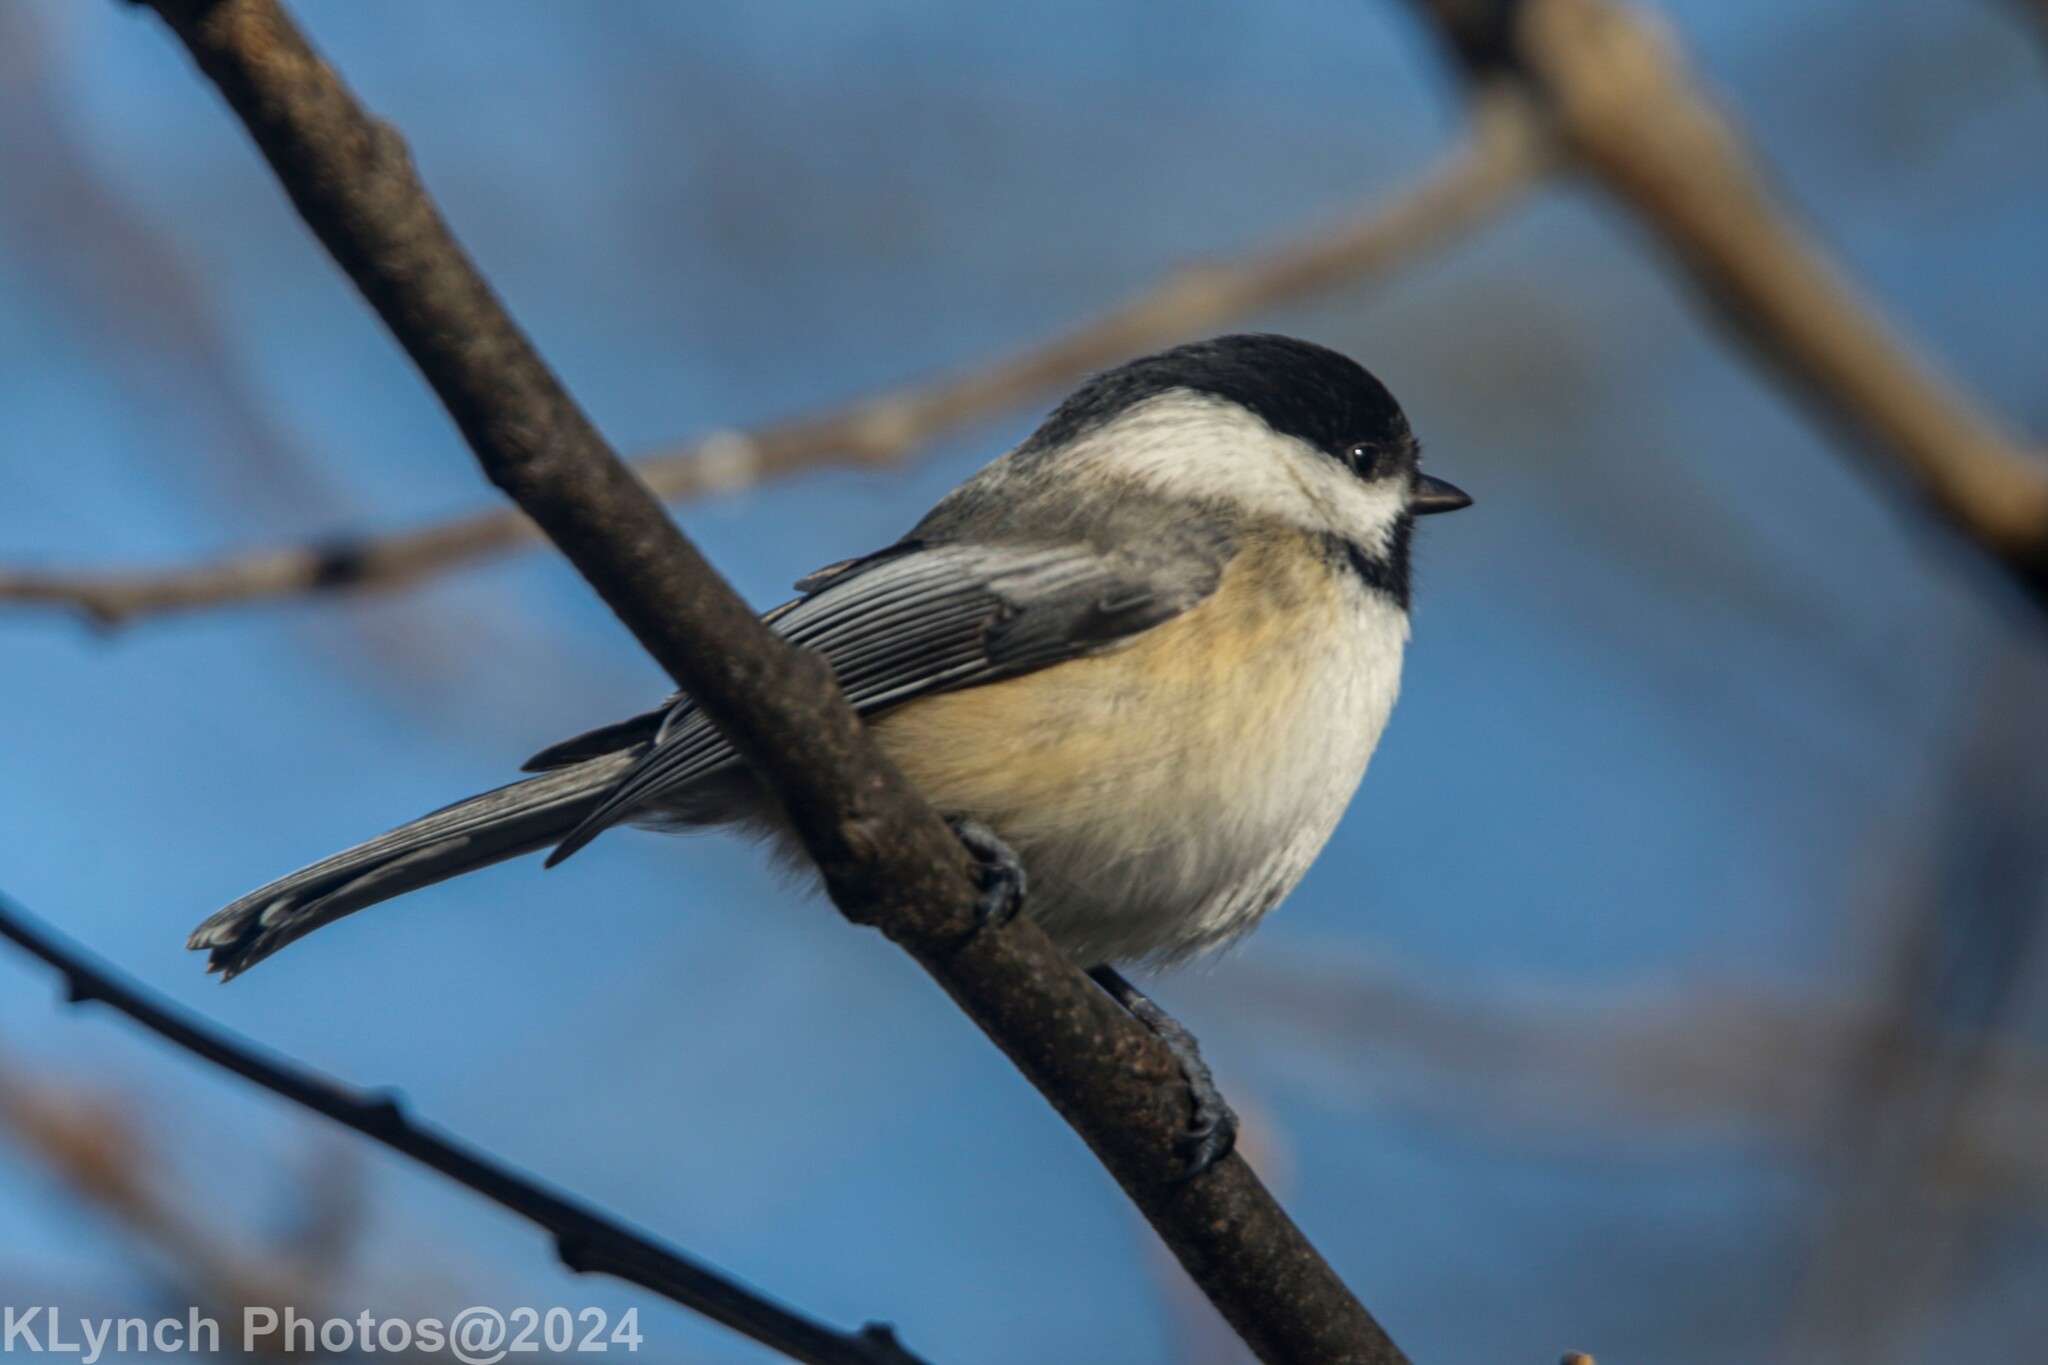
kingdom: Animalia
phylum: Chordata
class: Aves
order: Passeriformes
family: Paridae
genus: Poecile
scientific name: Poecile atricapillus
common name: Black-capped chickadee
